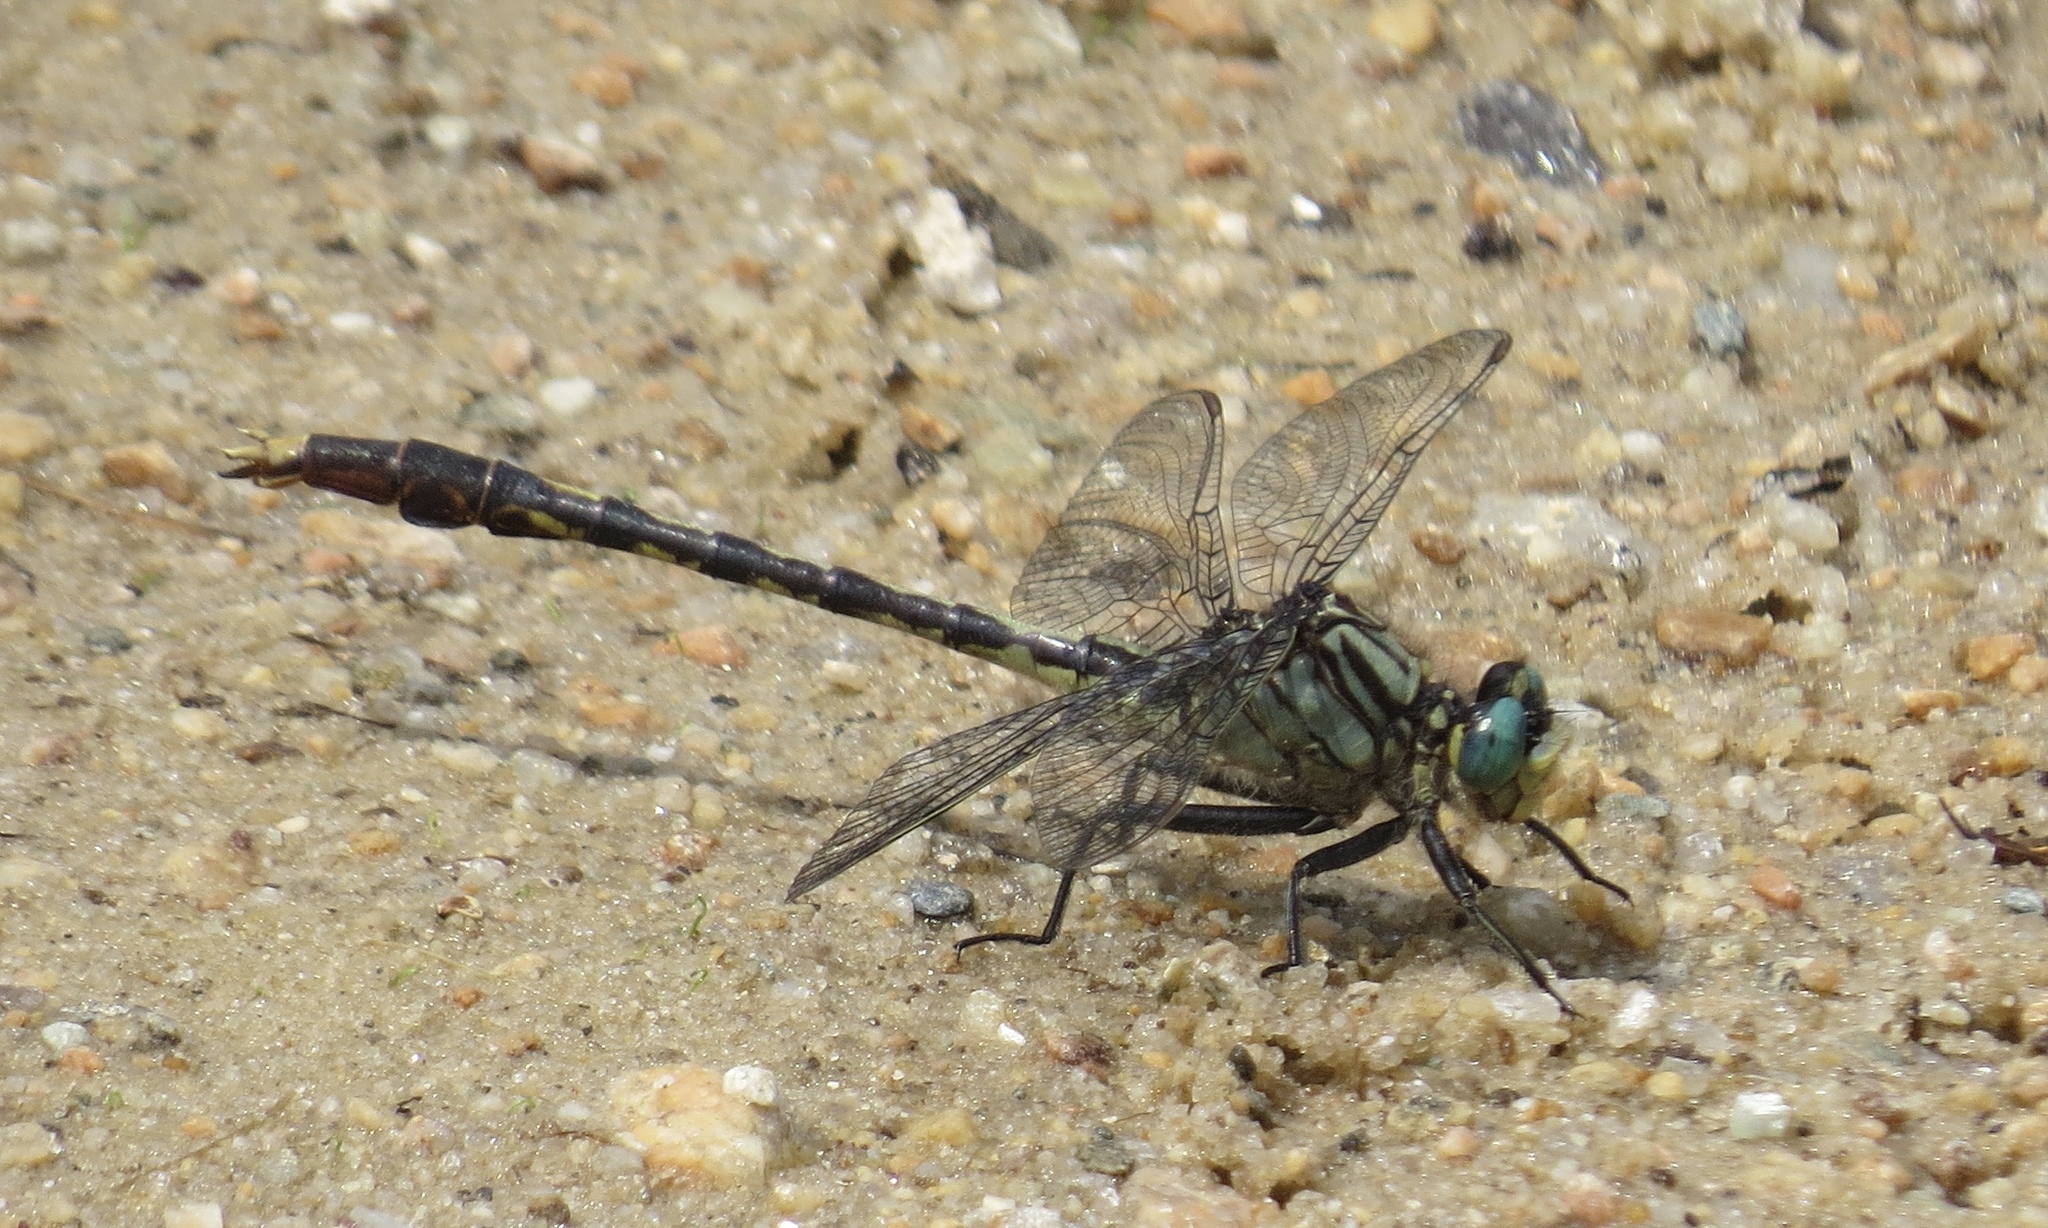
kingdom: Animalia
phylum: Arthropoda
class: Insecta
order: Odonata
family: Gomphidae
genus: Arigomphus
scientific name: Arigomphus villosipes
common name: Unicorn clubtail
